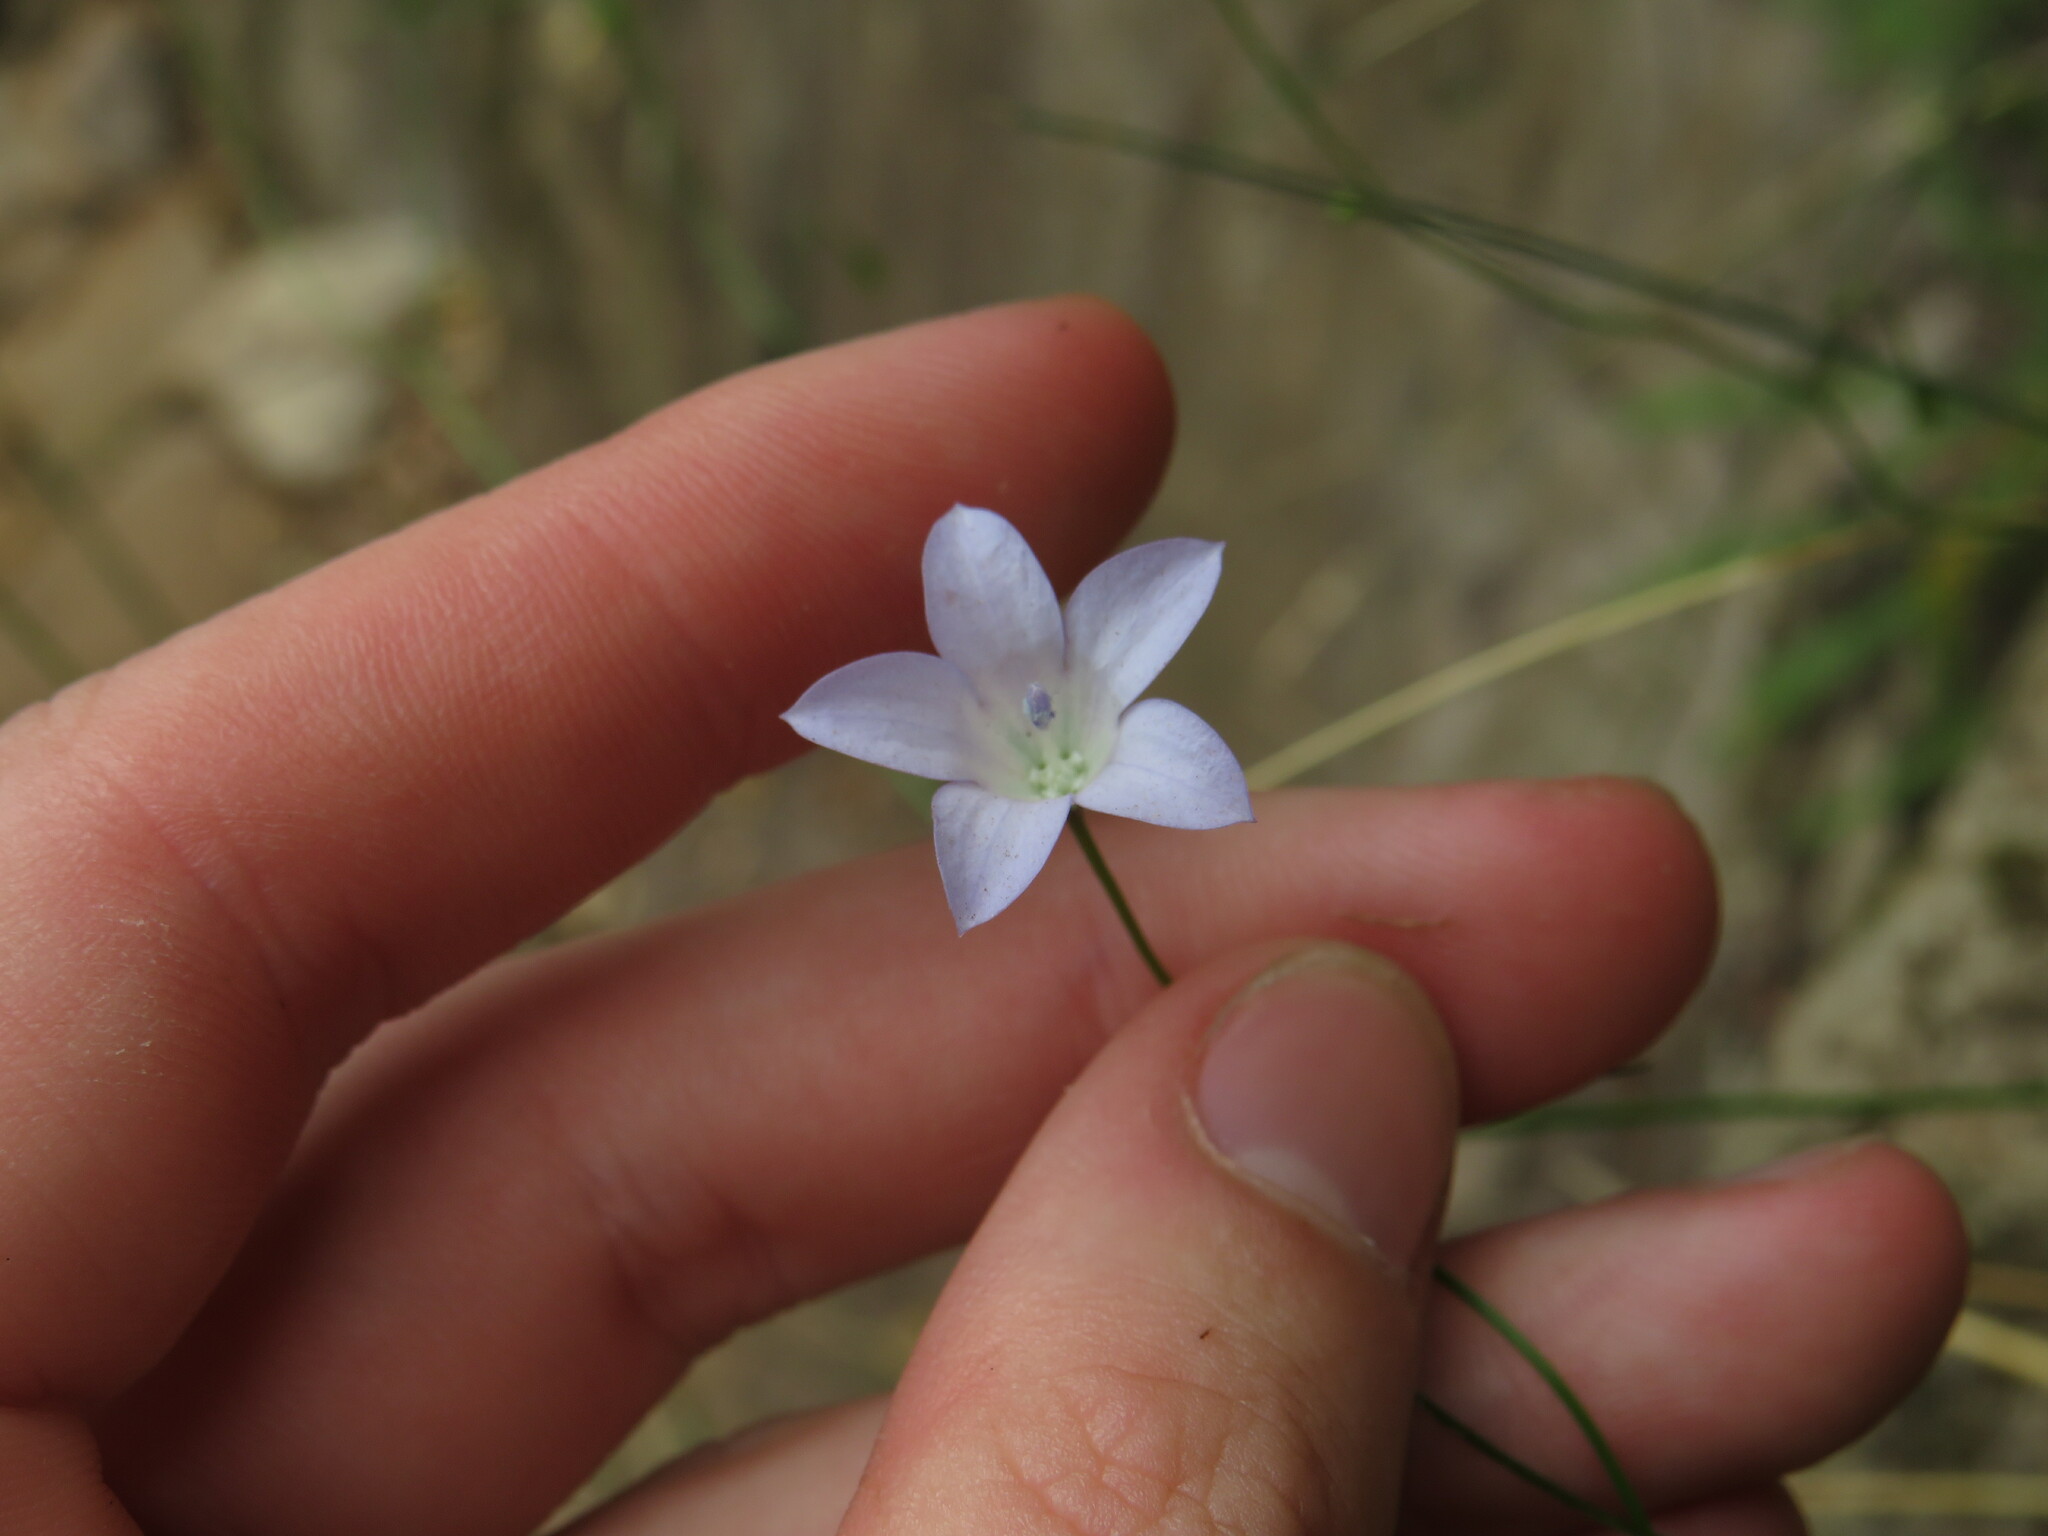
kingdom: Plantae
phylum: Tracheophyta
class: Magnoliopsida
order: Asterales
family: Campanulaceae
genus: Wahlenbergia
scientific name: Wahlenbergia obovata
